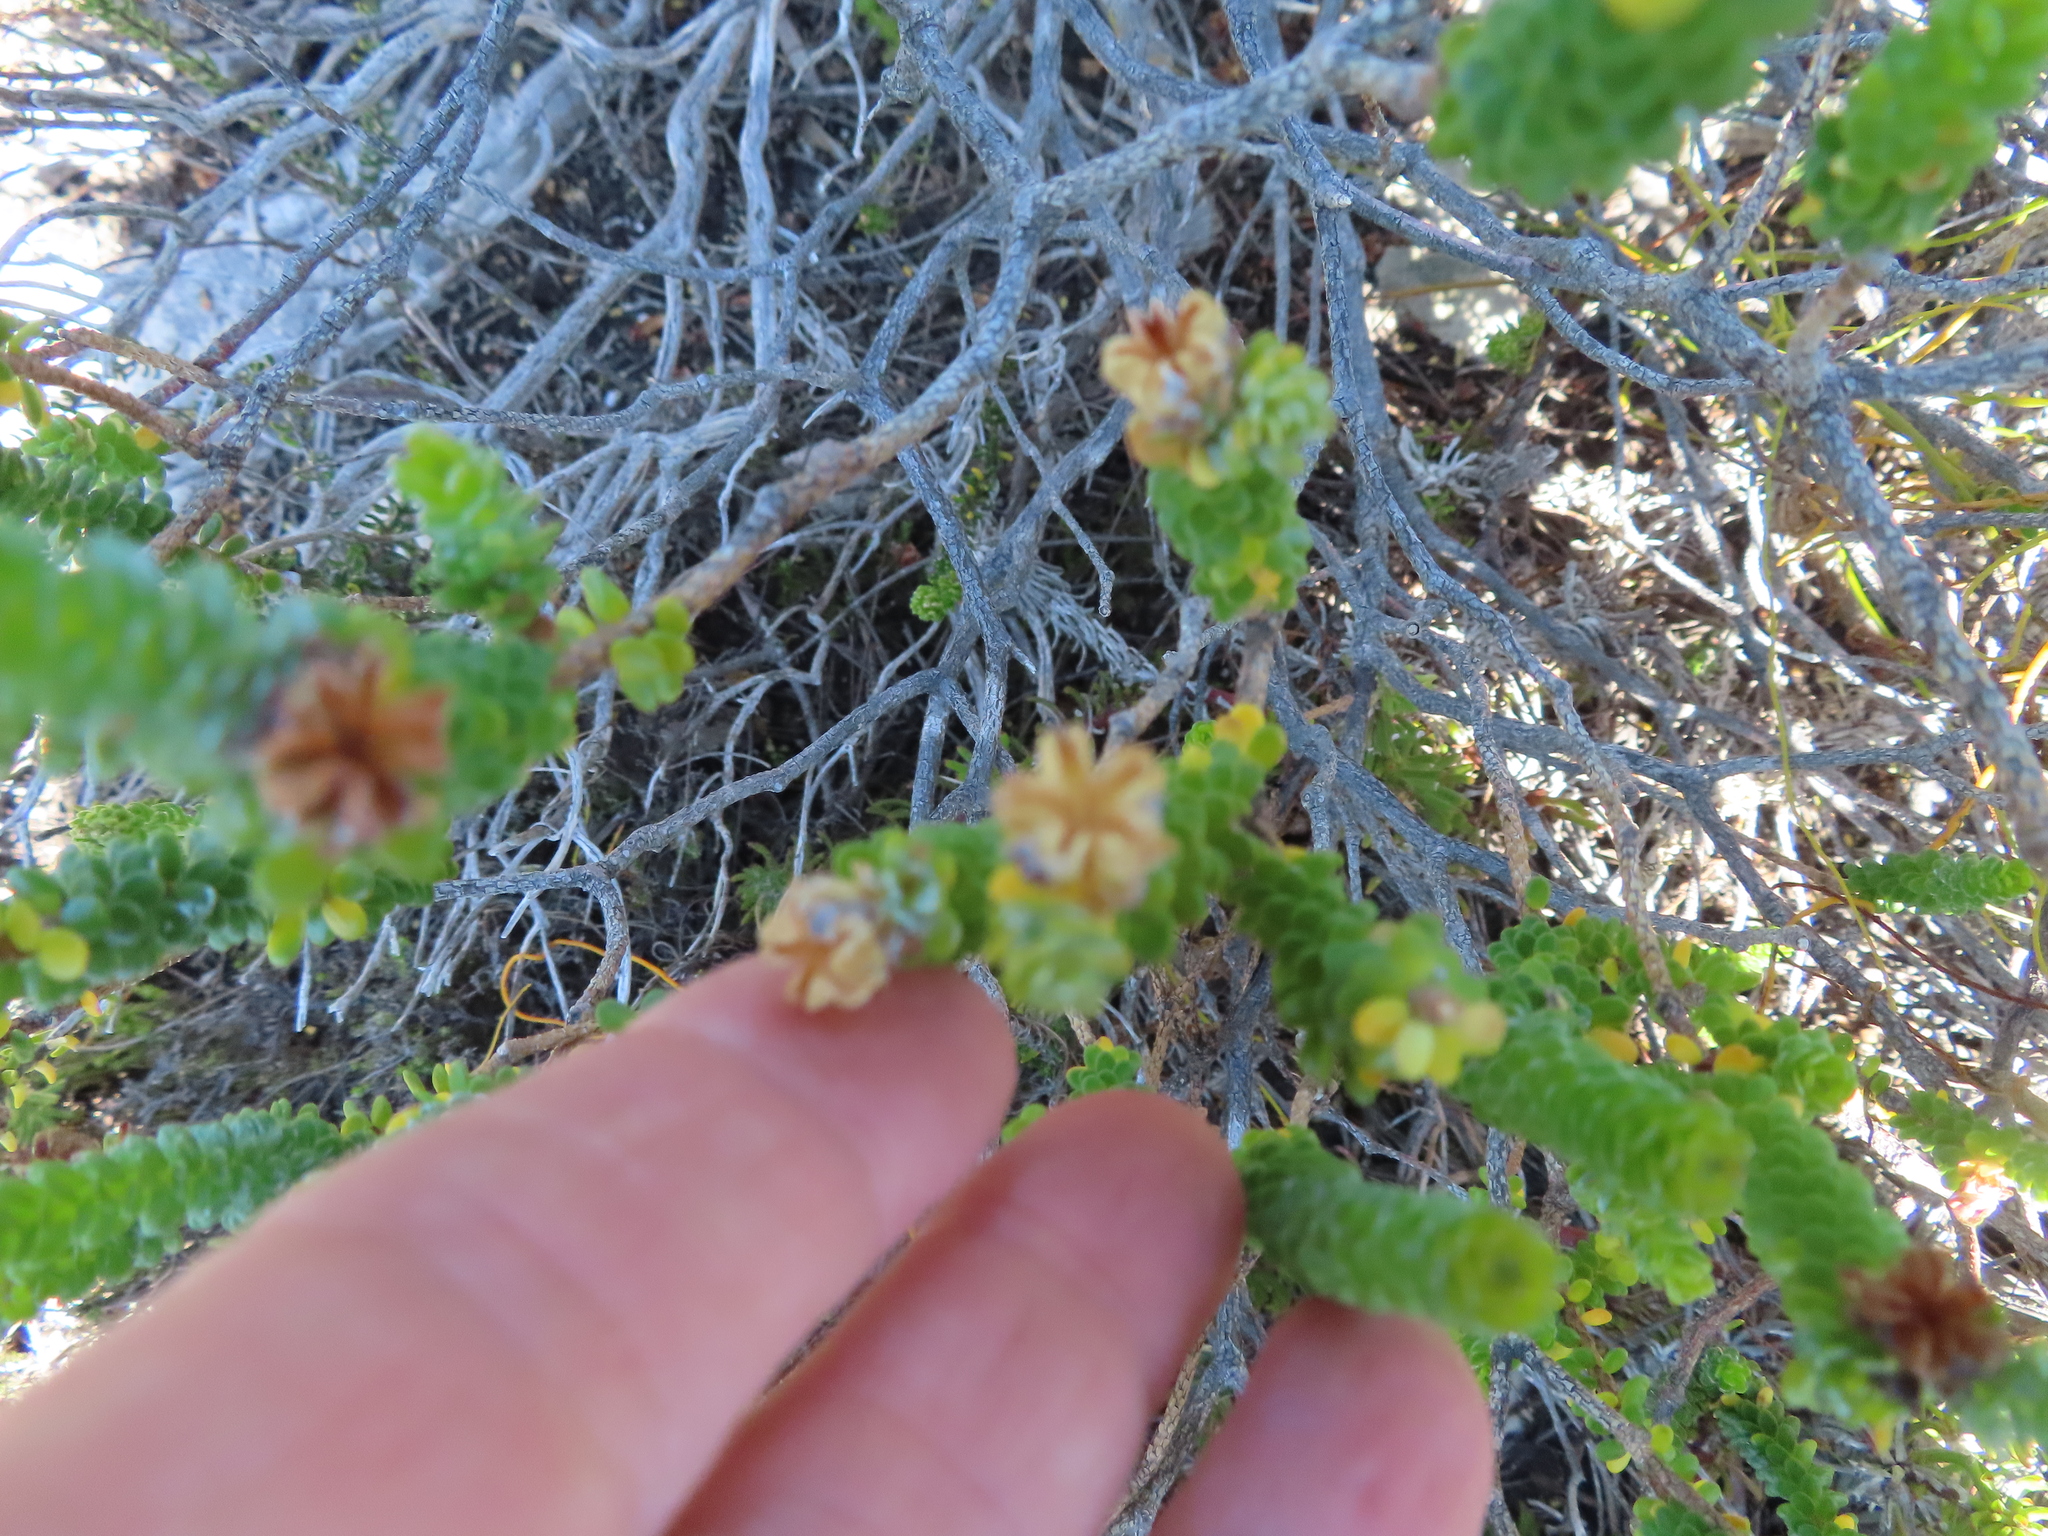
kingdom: Plantae
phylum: Tracheophyta
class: Magnoliopsida
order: Sapindales
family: Rutaceae
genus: Adenandra
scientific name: Adenandra obtusata
